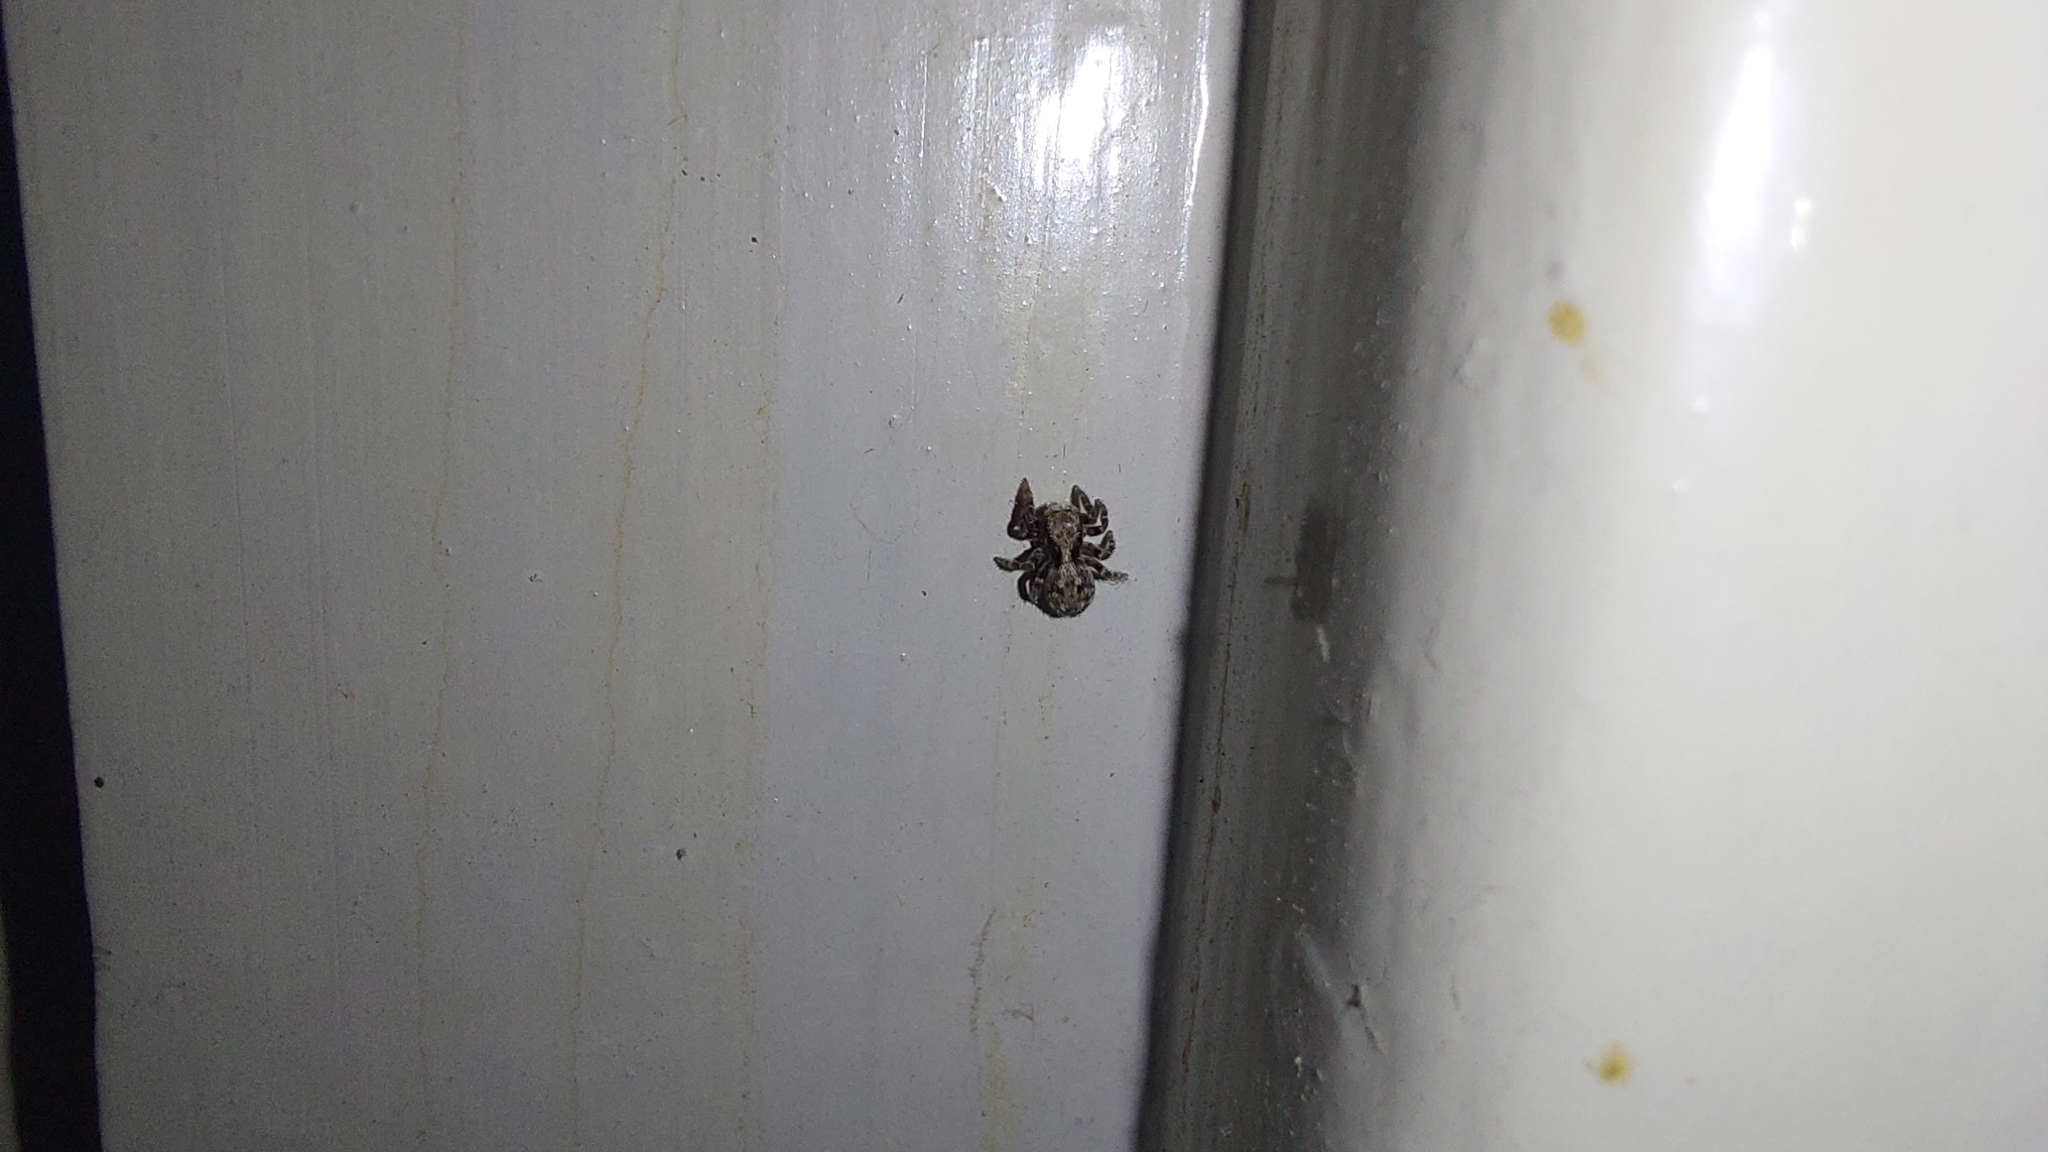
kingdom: Animalia
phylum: Arthropoda
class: Arachnida
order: Araneae
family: Salticidae
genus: Pseudeuophrys
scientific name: Pseudeuophrys lanigera
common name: Jumping spider
